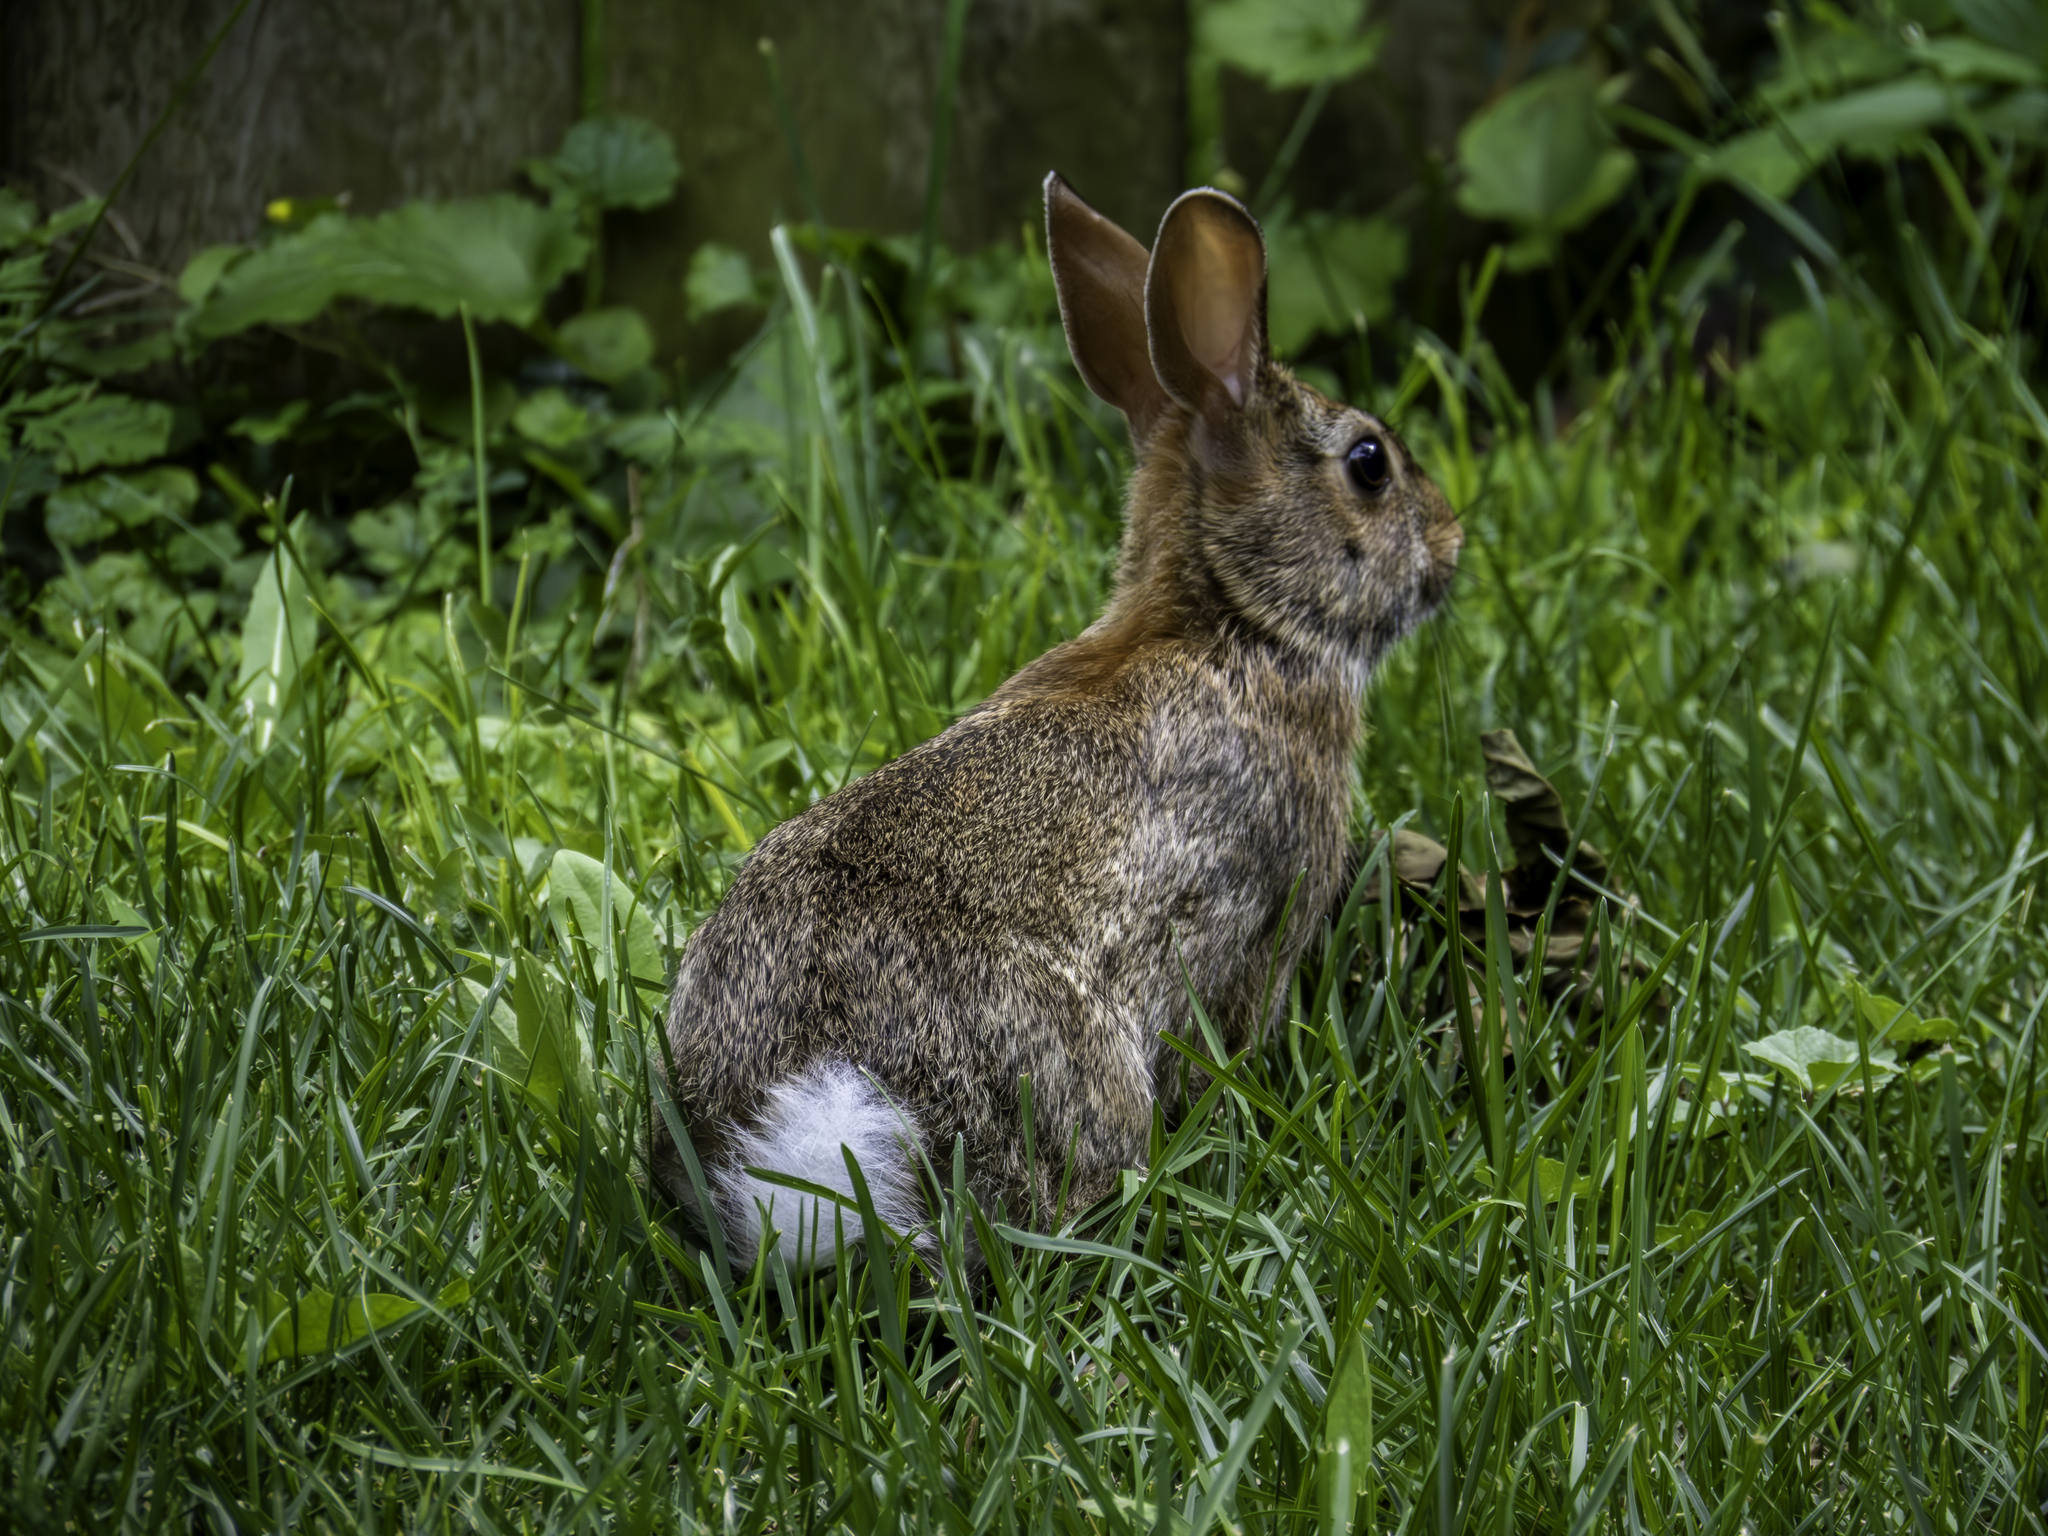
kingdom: Animalia
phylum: Chordata
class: Mammalia
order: Lagomorpha
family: Leporidae
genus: Sylvilagus
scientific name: Sylvilagus floridanus
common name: Eastern cottontail
